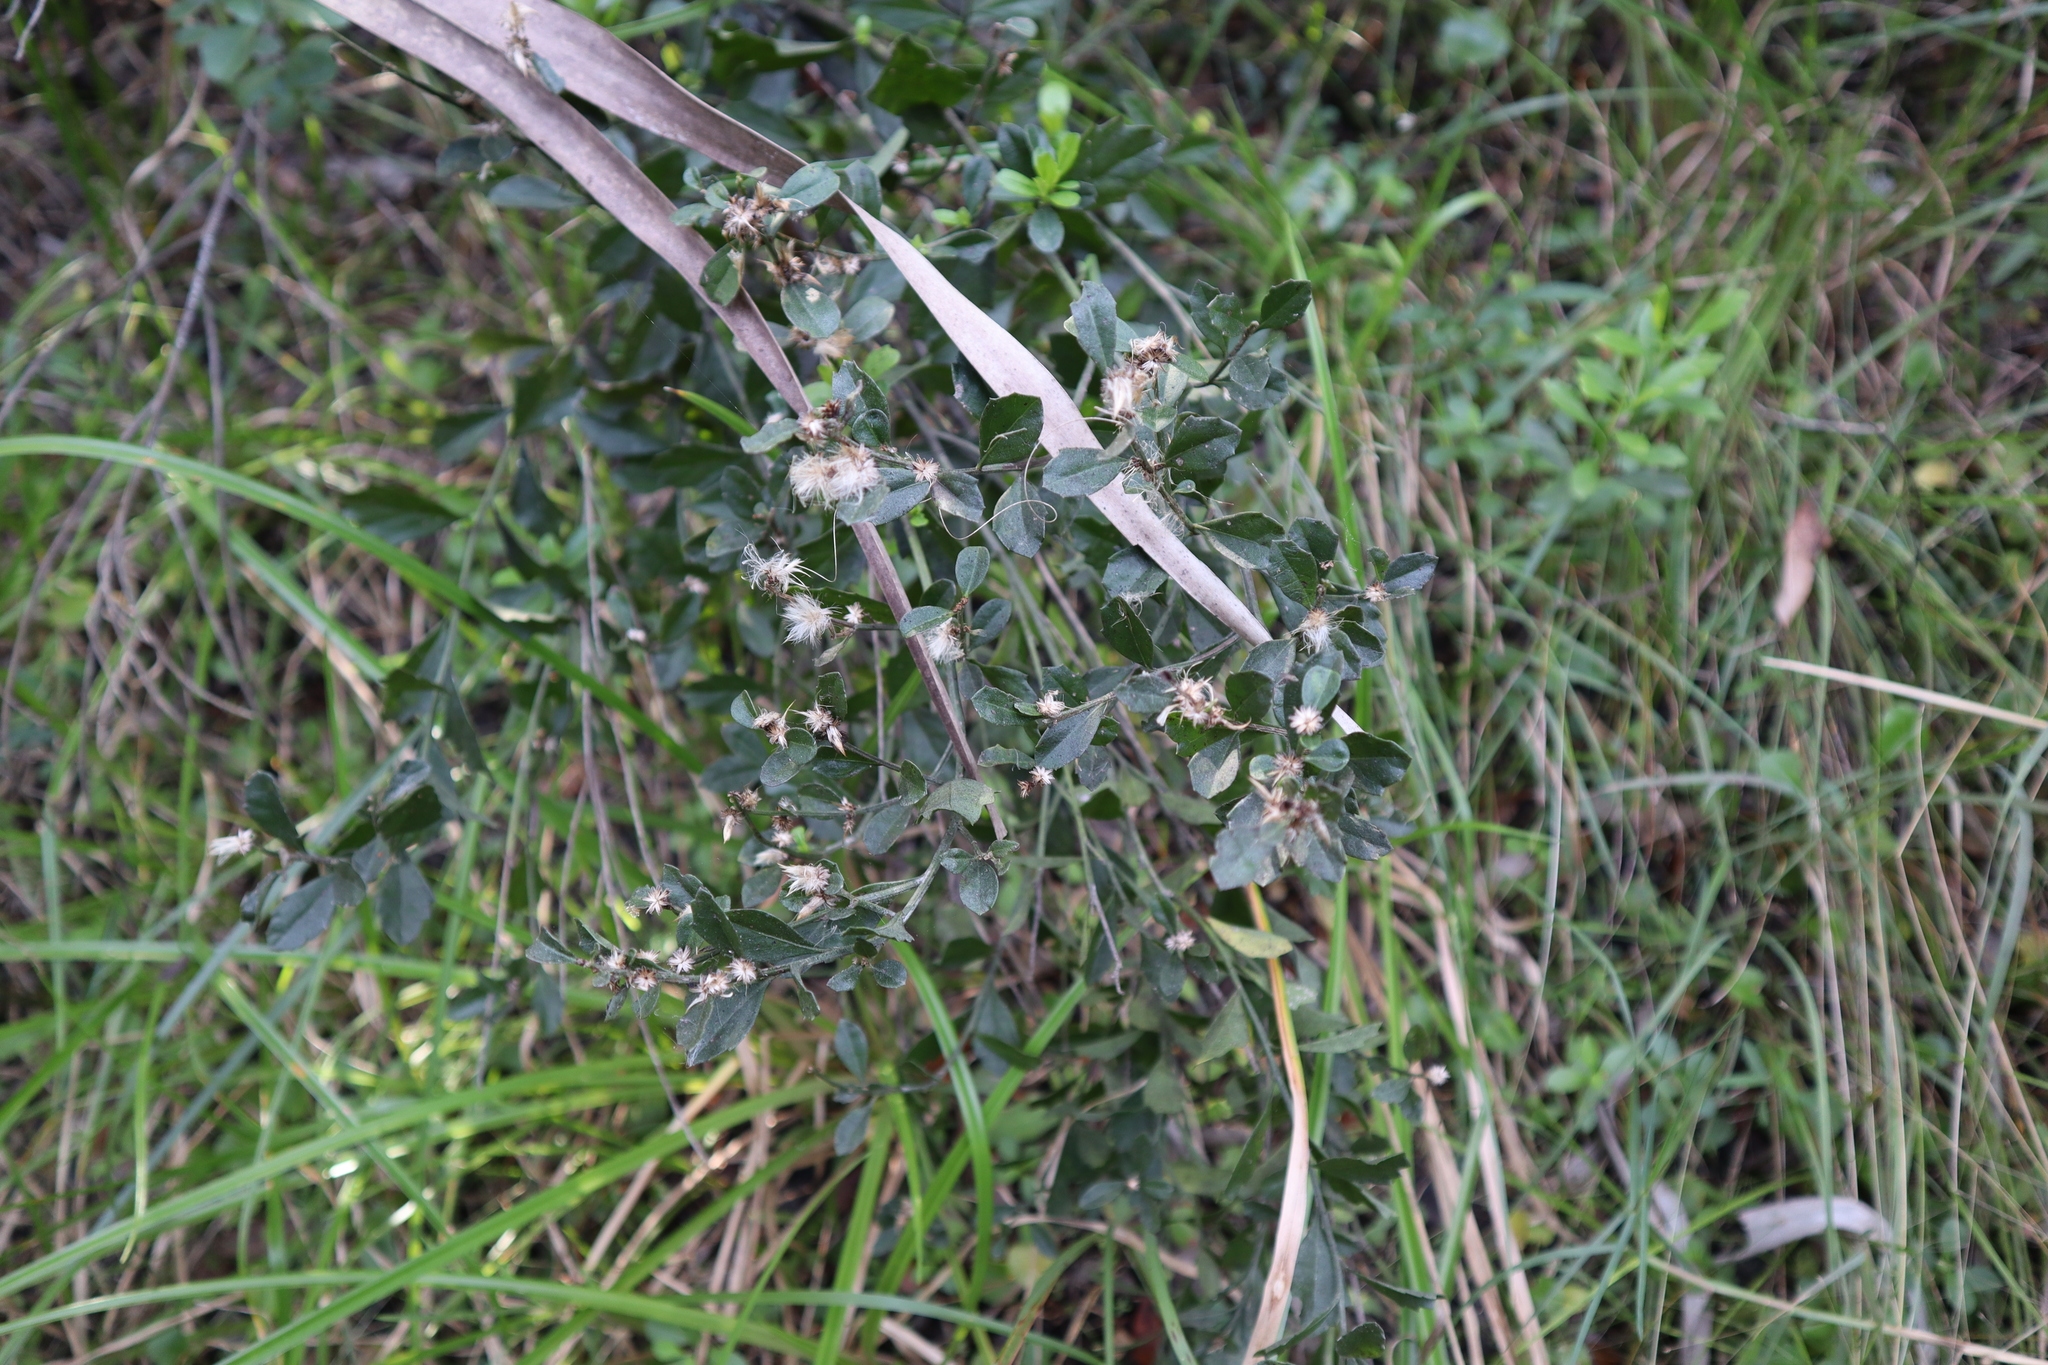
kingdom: Plantae
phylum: Tracheophyta
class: Magnoliopsida
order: Asterales
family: Asteraceae
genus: Baccharis
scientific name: Baccharis glomeruliflora
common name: Silverling groundsel bush
